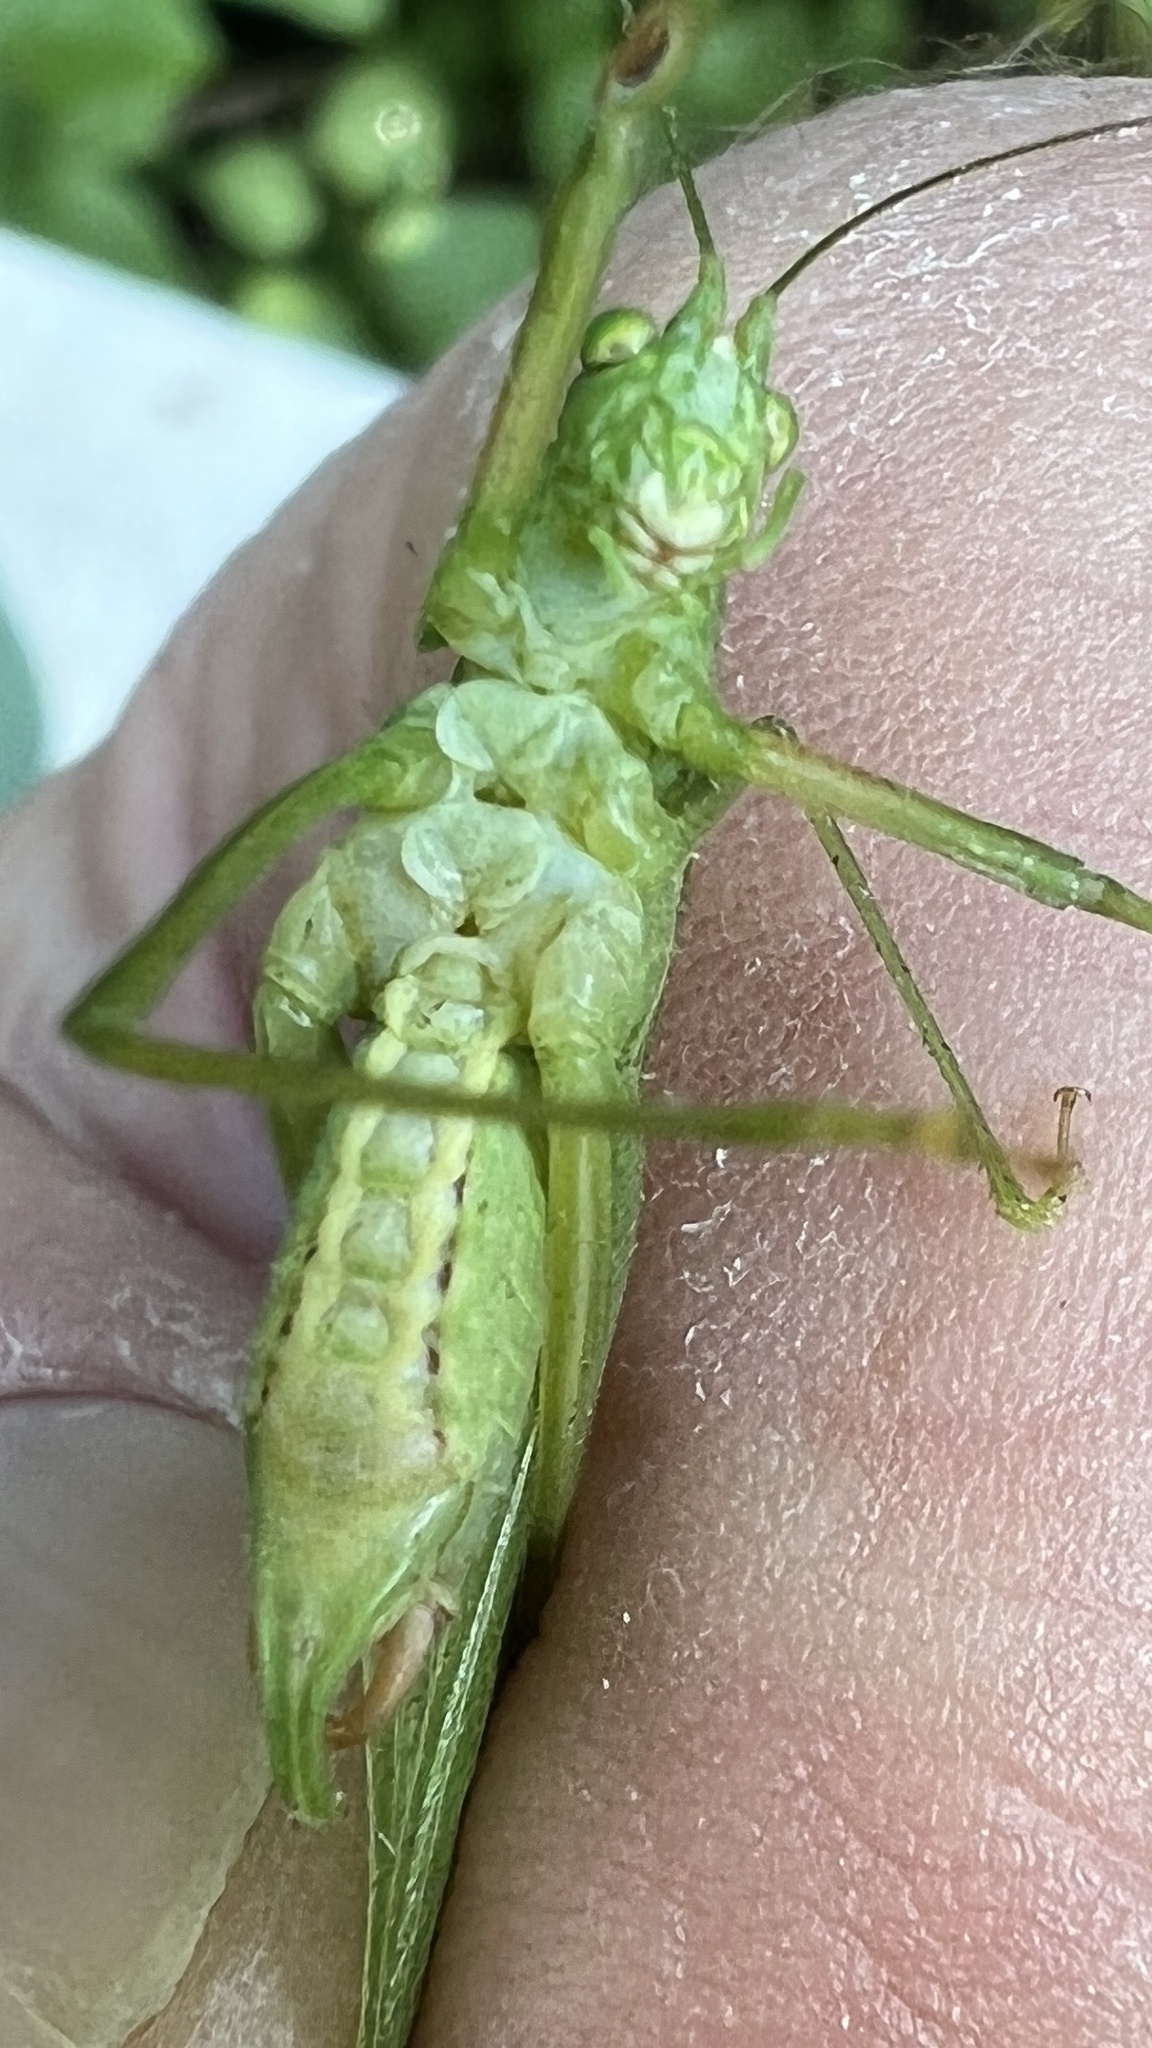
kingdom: Animalia
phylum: Arthropoda
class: Insecta
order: Orthoptera
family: Tettigoniidae
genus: Scudderia
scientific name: Scudderia septentrionalis
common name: Northern bush-katydid
